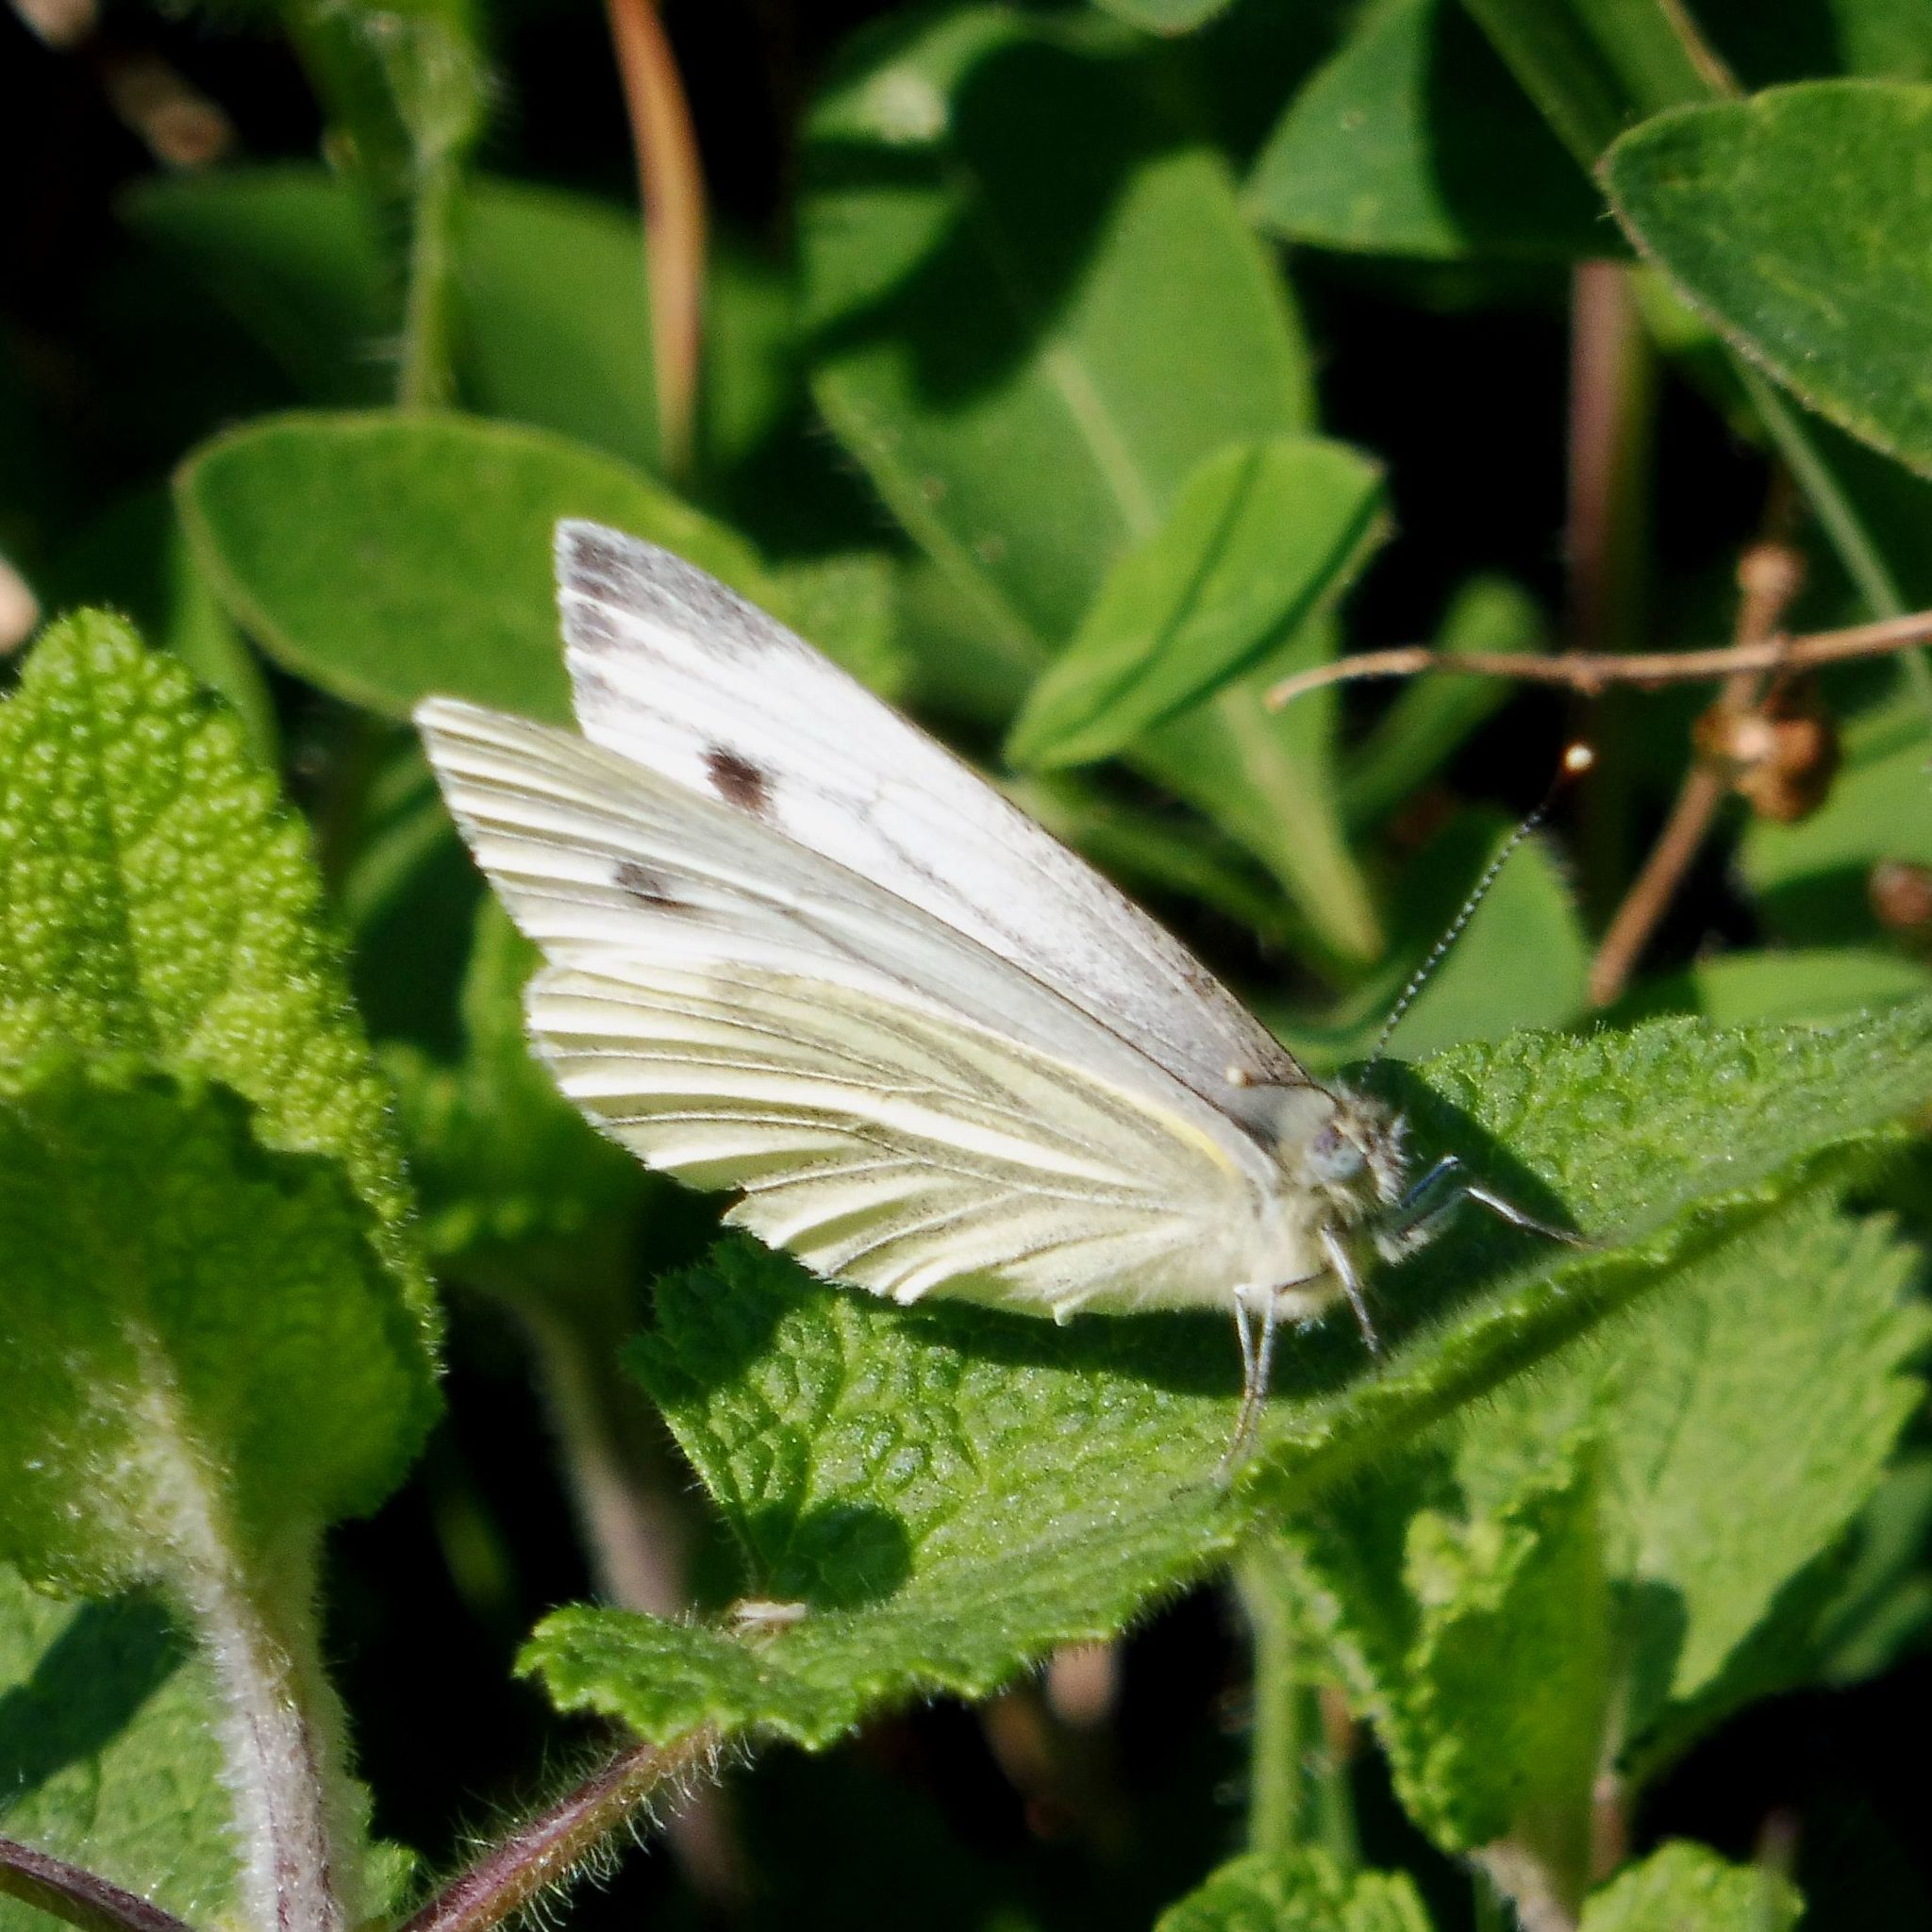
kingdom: Animalia
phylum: Arthropoda
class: Insecta
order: Lepidoptera
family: Pieridae
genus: Pieris
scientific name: Pieris napi
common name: Green-veined white
